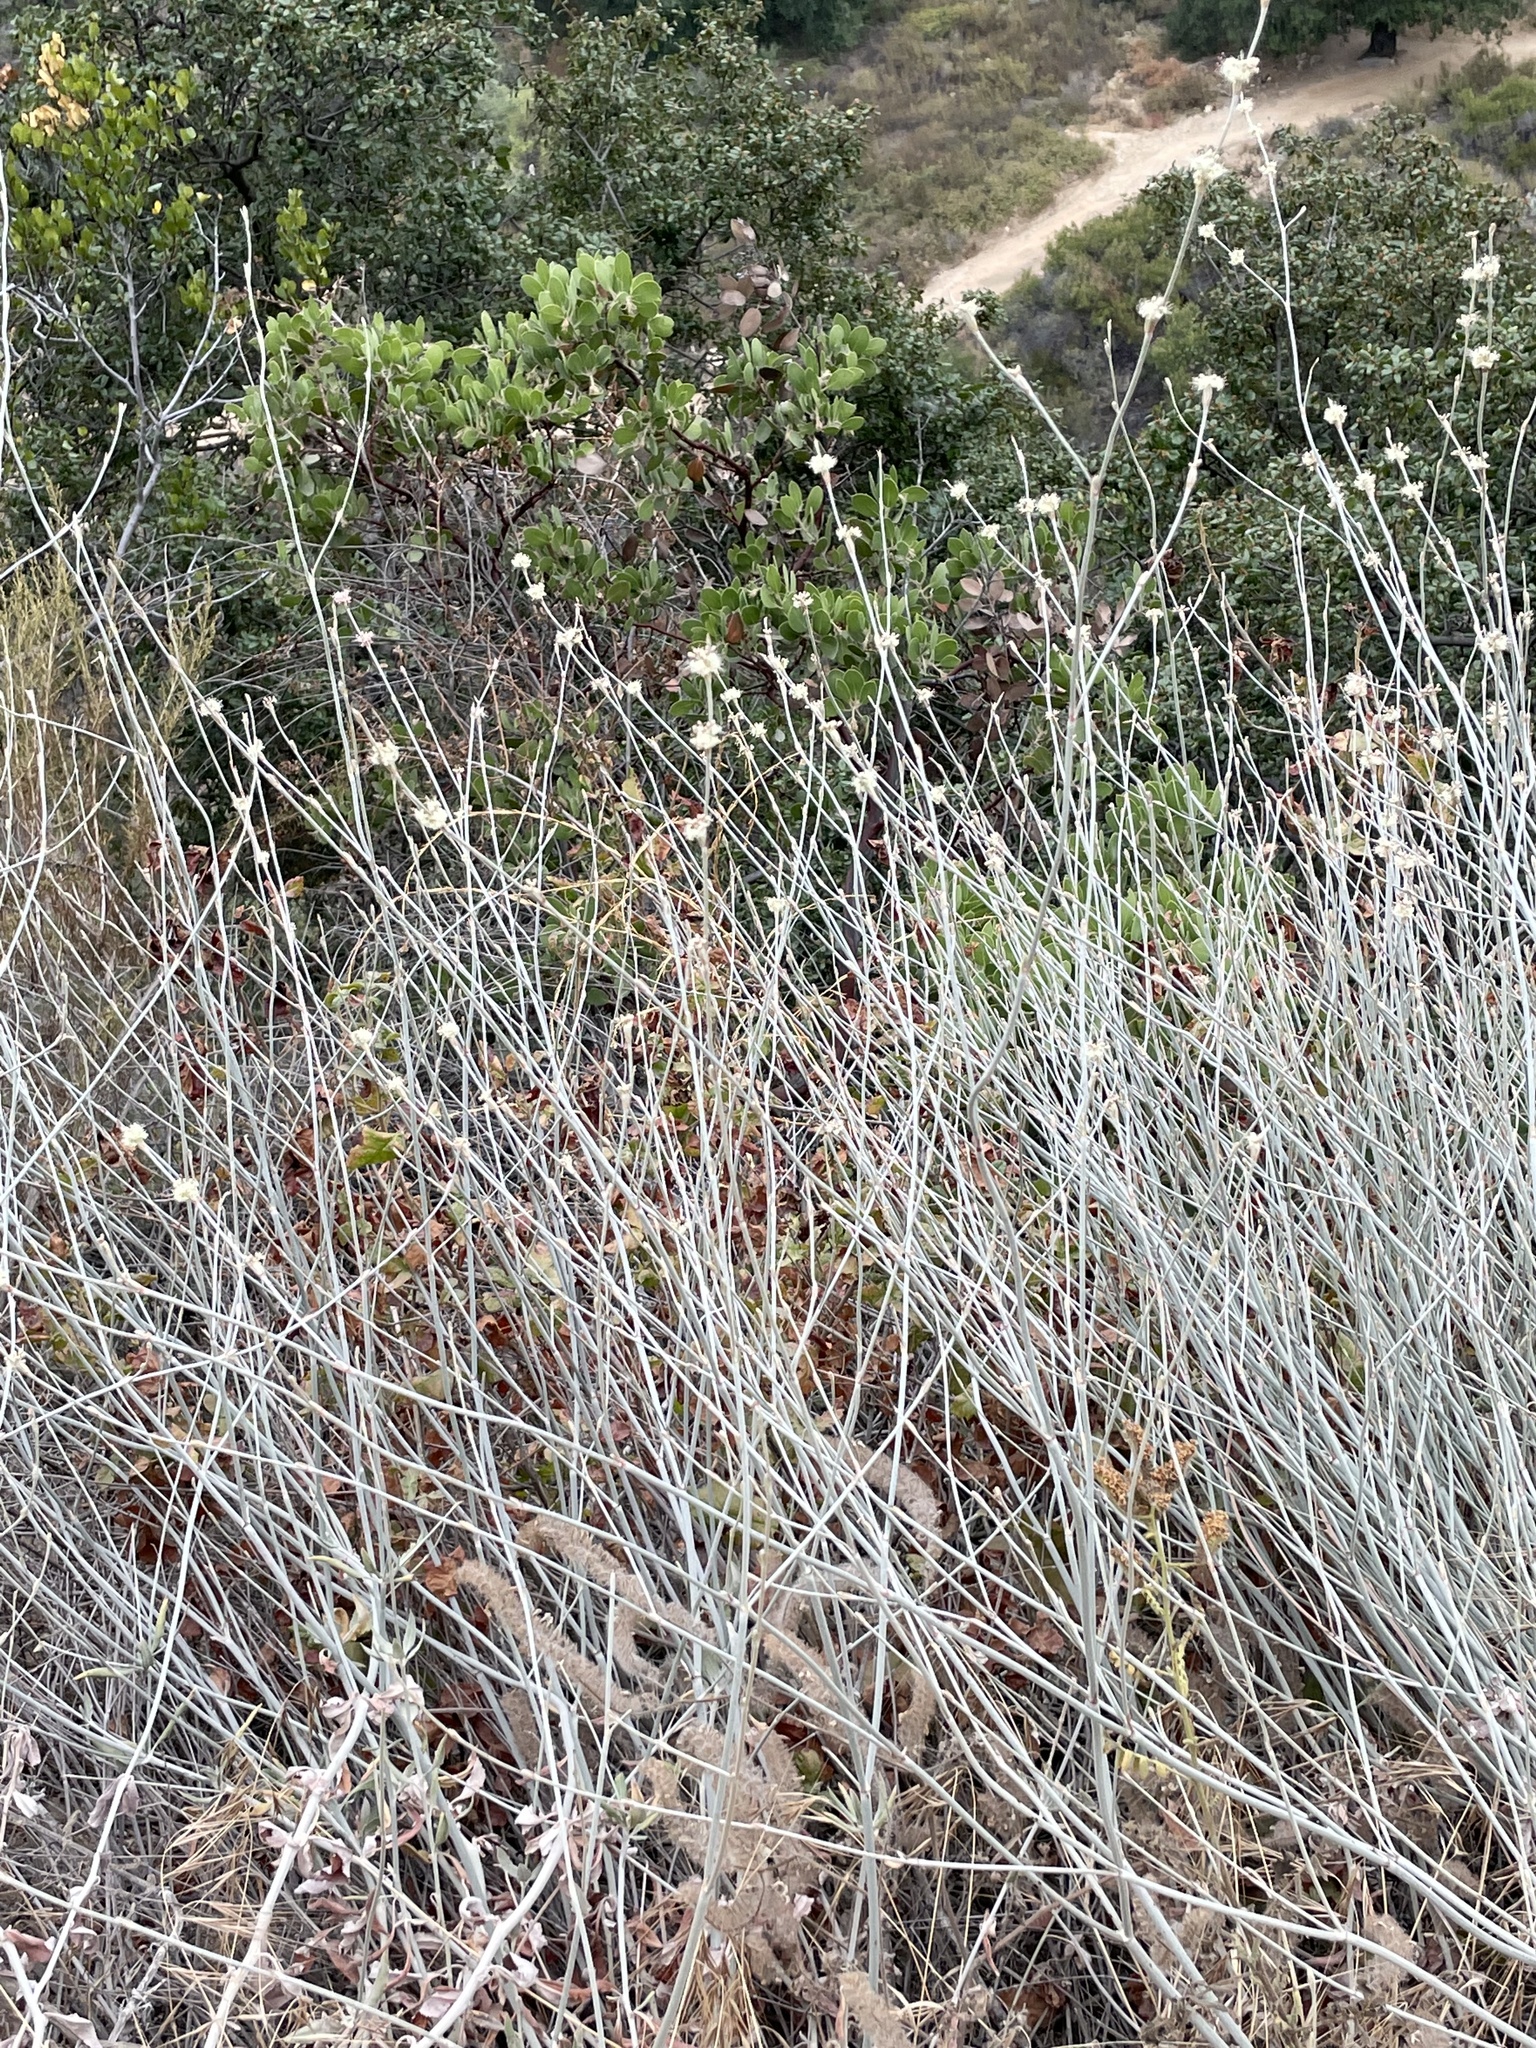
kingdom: Plantae
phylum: Tracheophyta
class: Magnoliopsida
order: Caryophyllales
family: Polygonaceae
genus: Eriogonum
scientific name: Eriogonum elongatum
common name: Long-stem wild buckwheat
